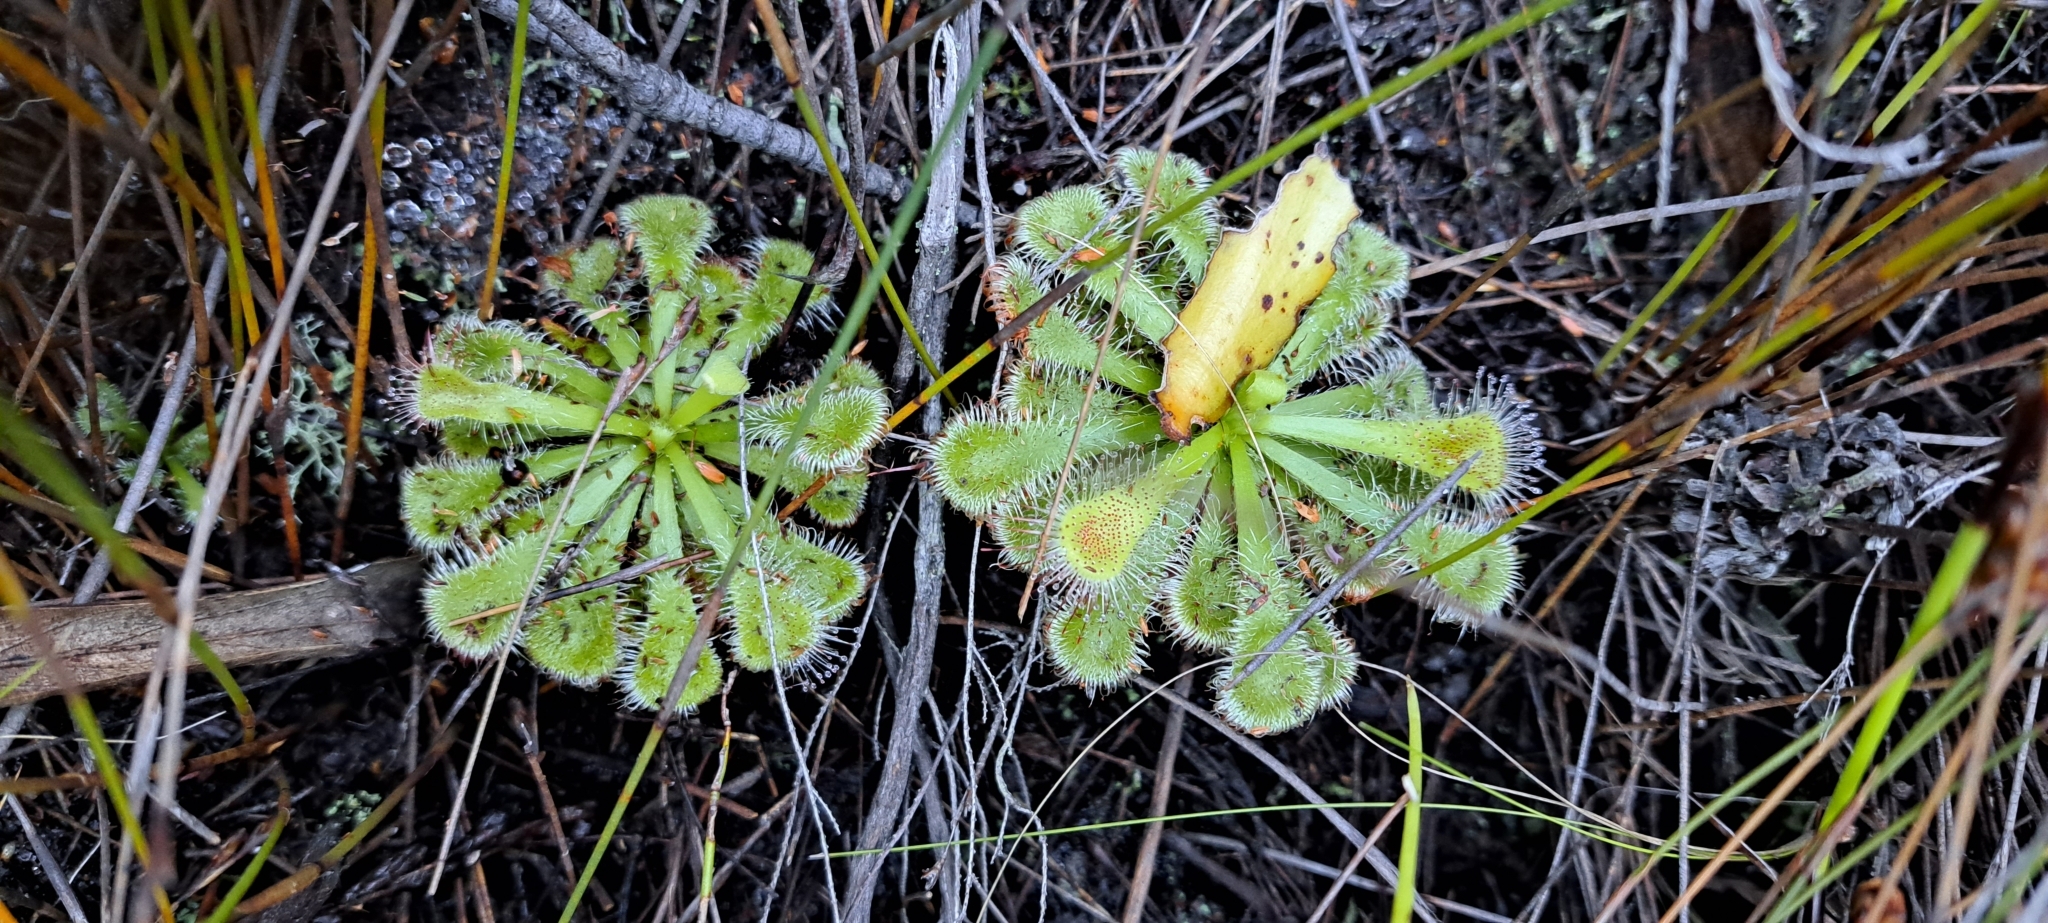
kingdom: Plantae
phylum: Tracheophyta
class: Magnoliopsida
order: Caryophyllales
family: Droseraceae
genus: Drosera
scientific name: Drosera xerophila
